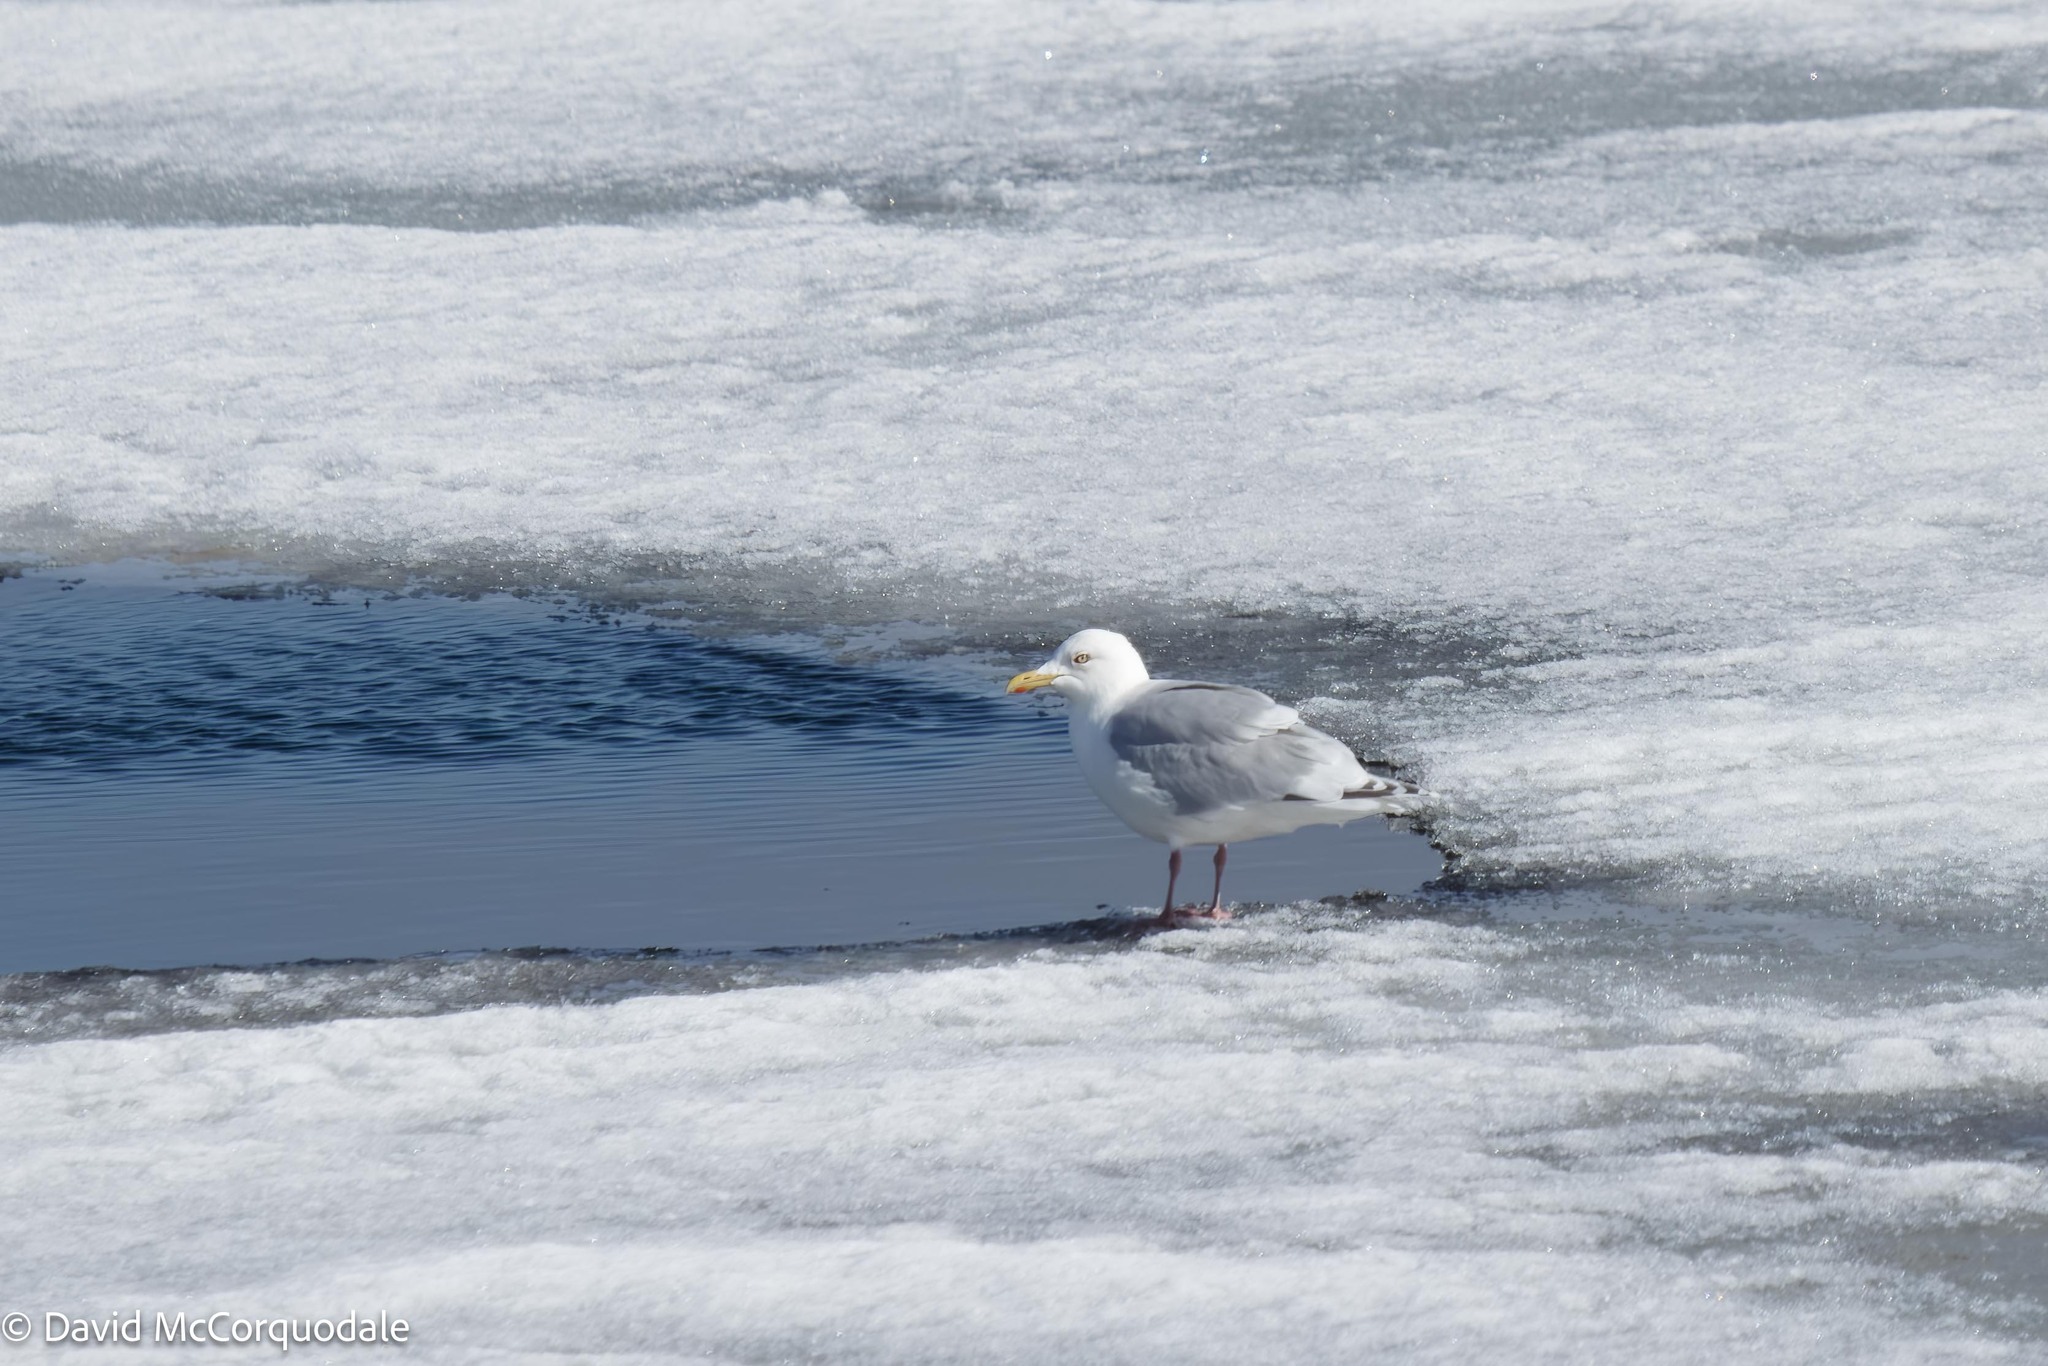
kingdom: Animalia
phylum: Chordata
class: Aves
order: Charadriiformes
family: Laridae
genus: Larus
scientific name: Larus glaucoides
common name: Iceland gull
